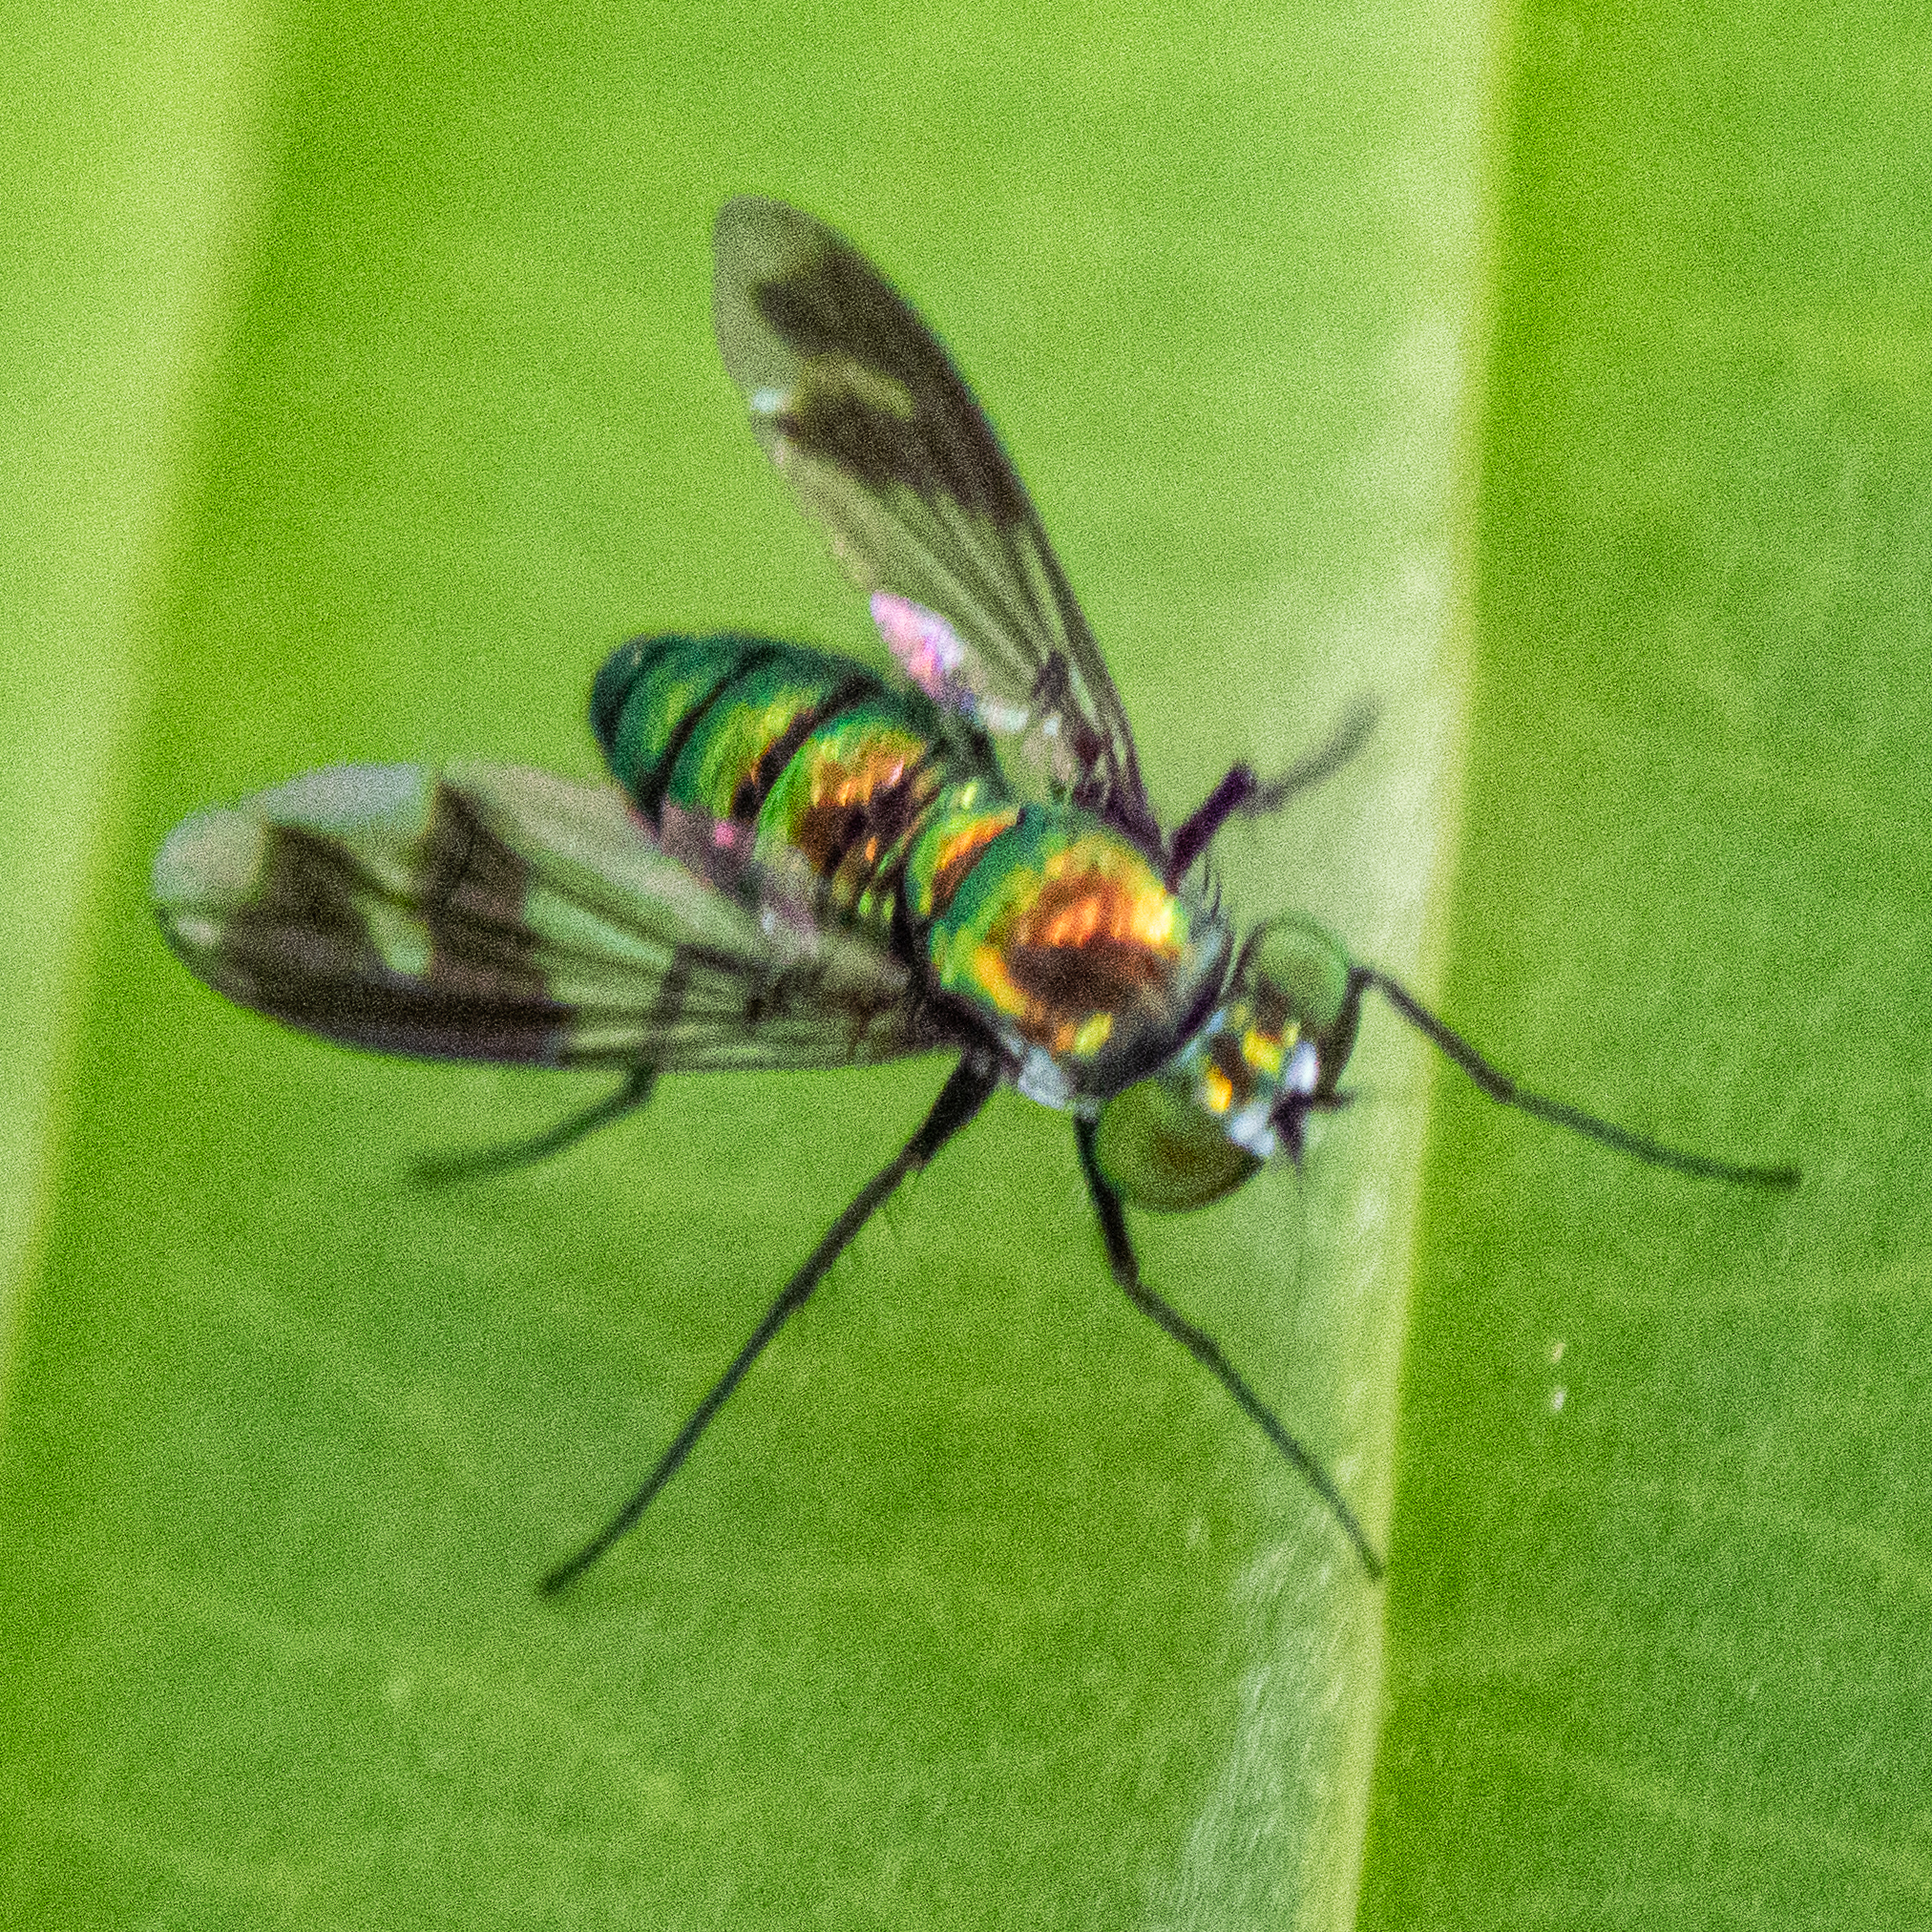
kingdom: Animalia
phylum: Arthropoda
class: Insecta
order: Diptera
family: Dolichopodidae
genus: Condylostylus
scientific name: Condylostylus patibulatus
